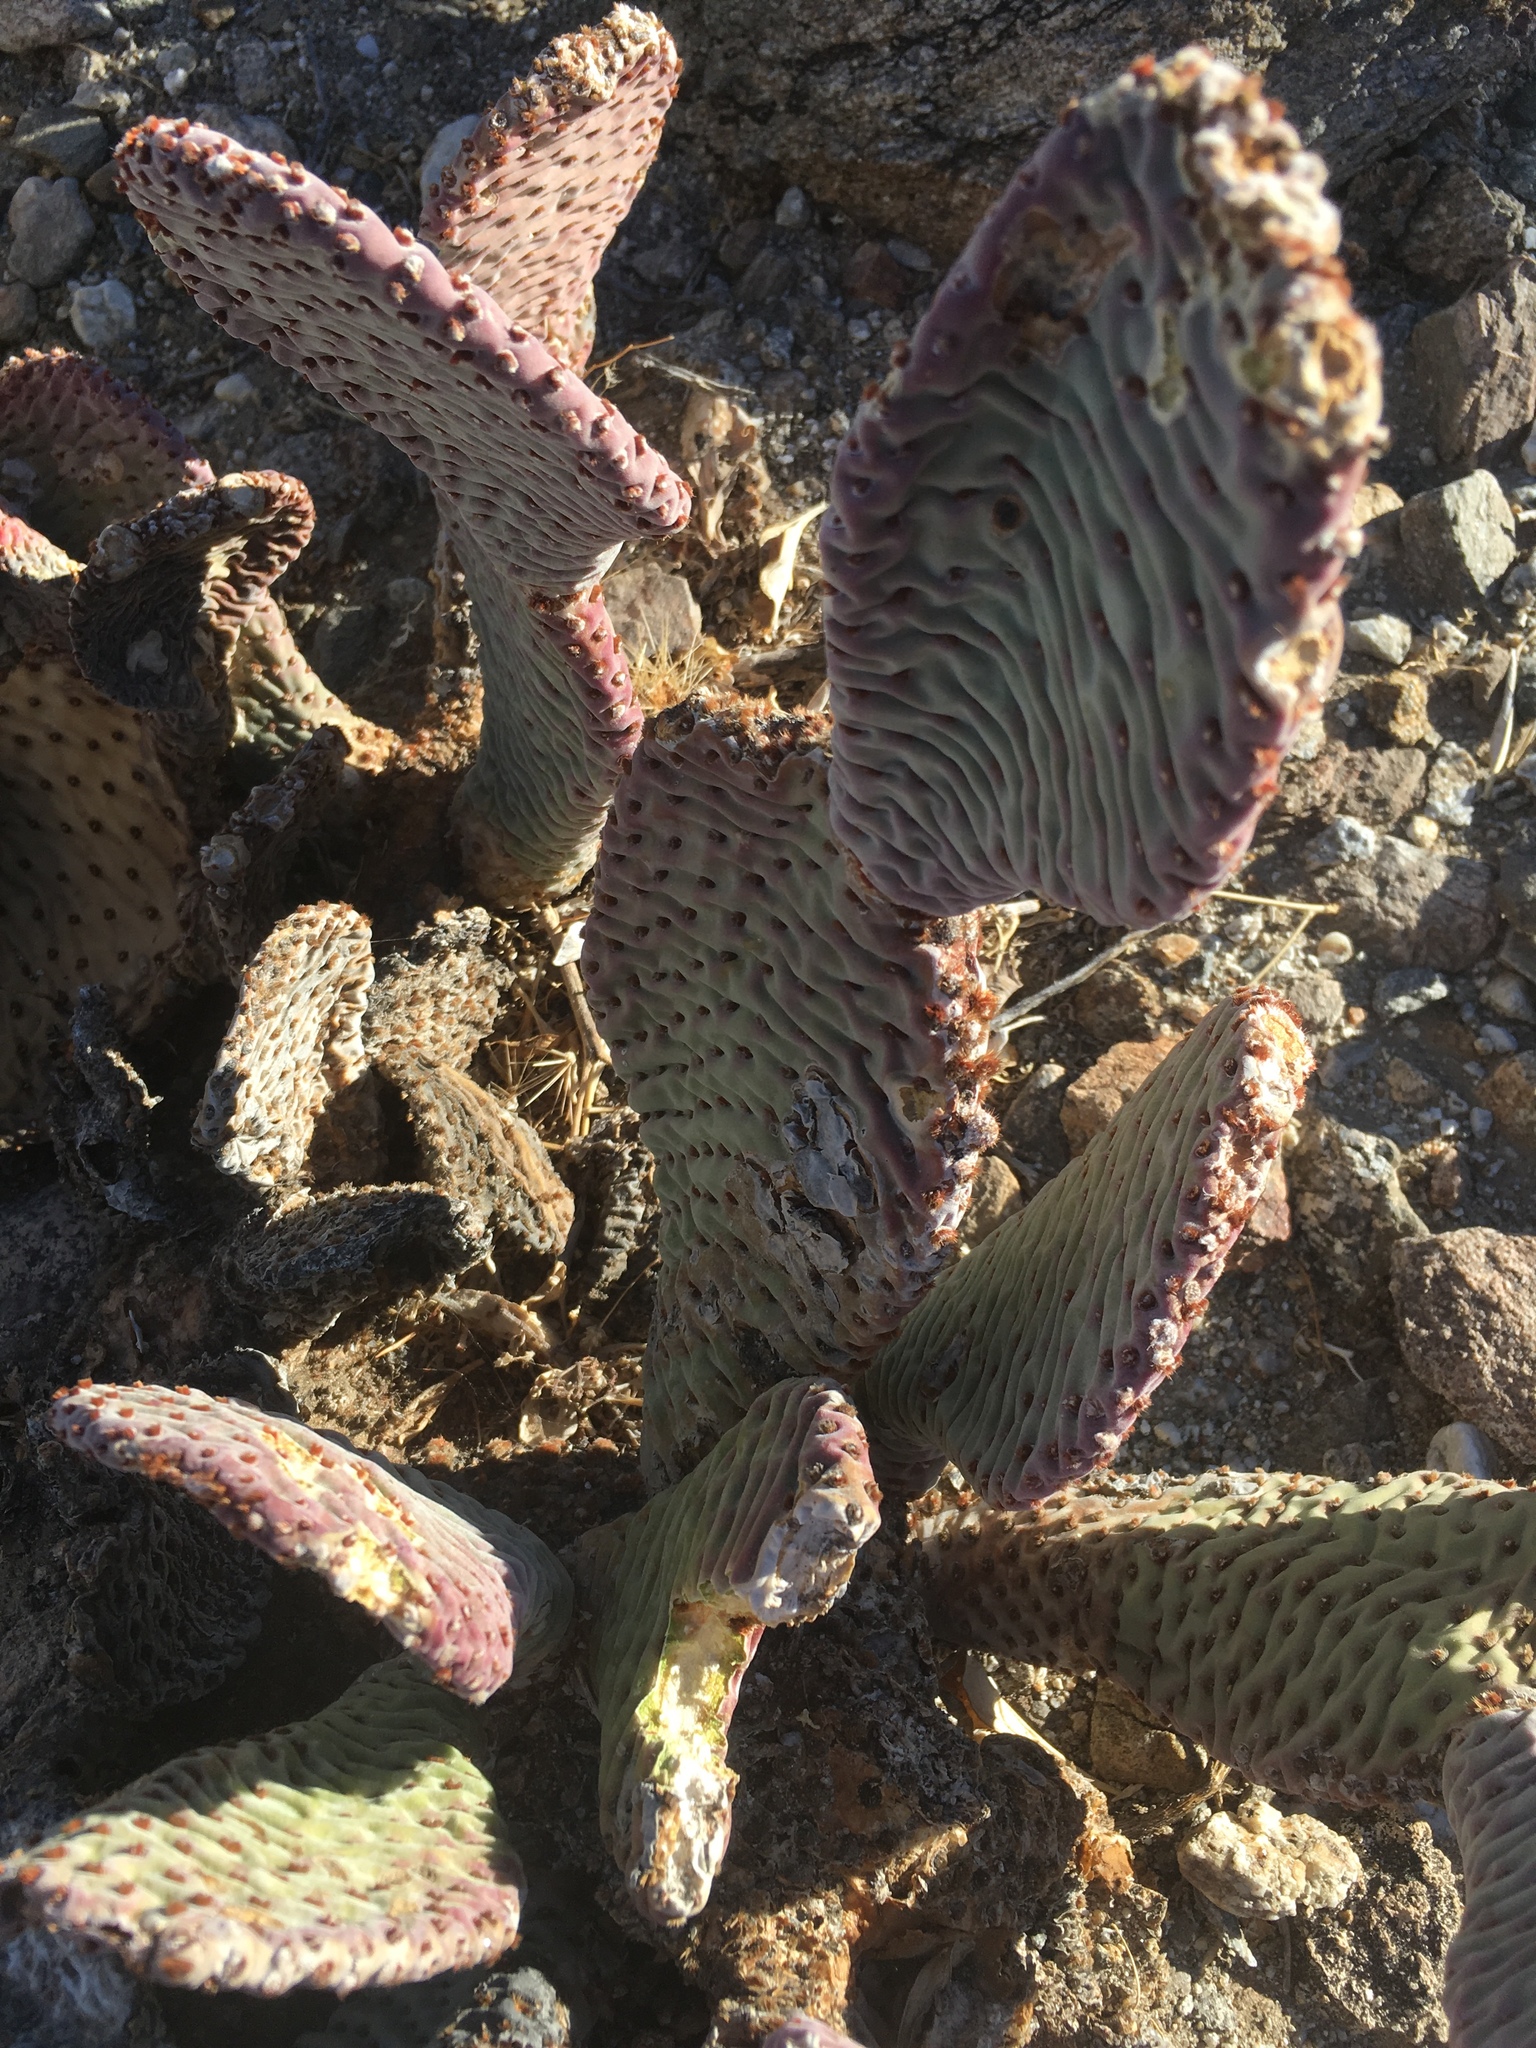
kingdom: Plantae
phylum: Tracheophyta
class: Magnoliopsida
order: Caryophyllales
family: Cactaceae
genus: Opuntia
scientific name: Opuntia basilaris
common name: Beavertail prickly-pear
